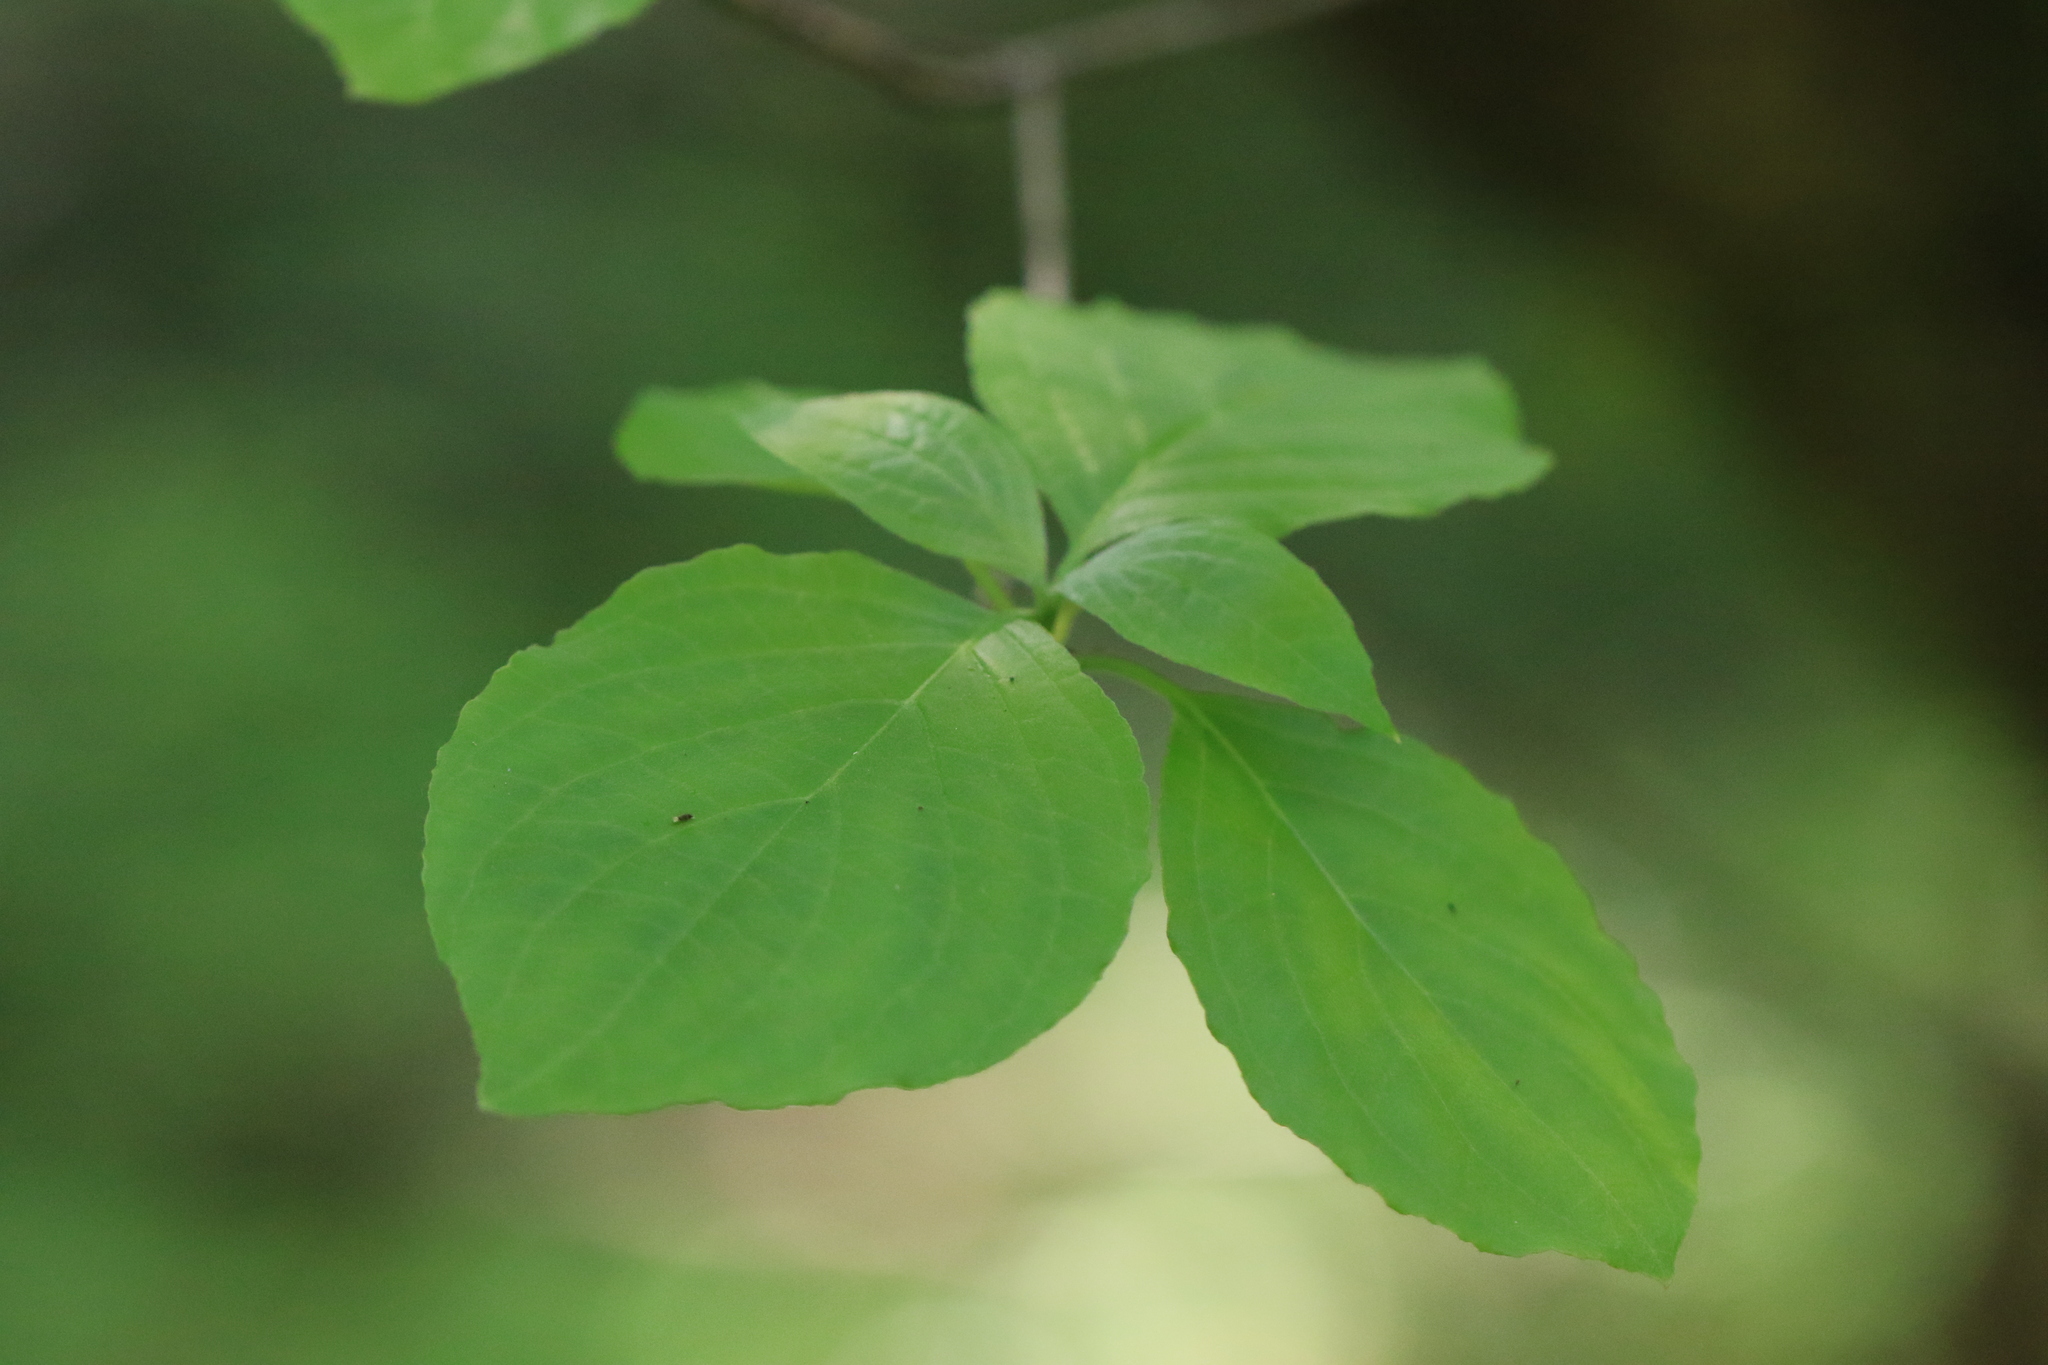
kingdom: Plantae
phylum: Tracheophyta
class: Magnoliopsida
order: Cornales
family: Cornaceae
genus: Cornus
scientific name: Cornus nuttallii
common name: Pacific dogwood
